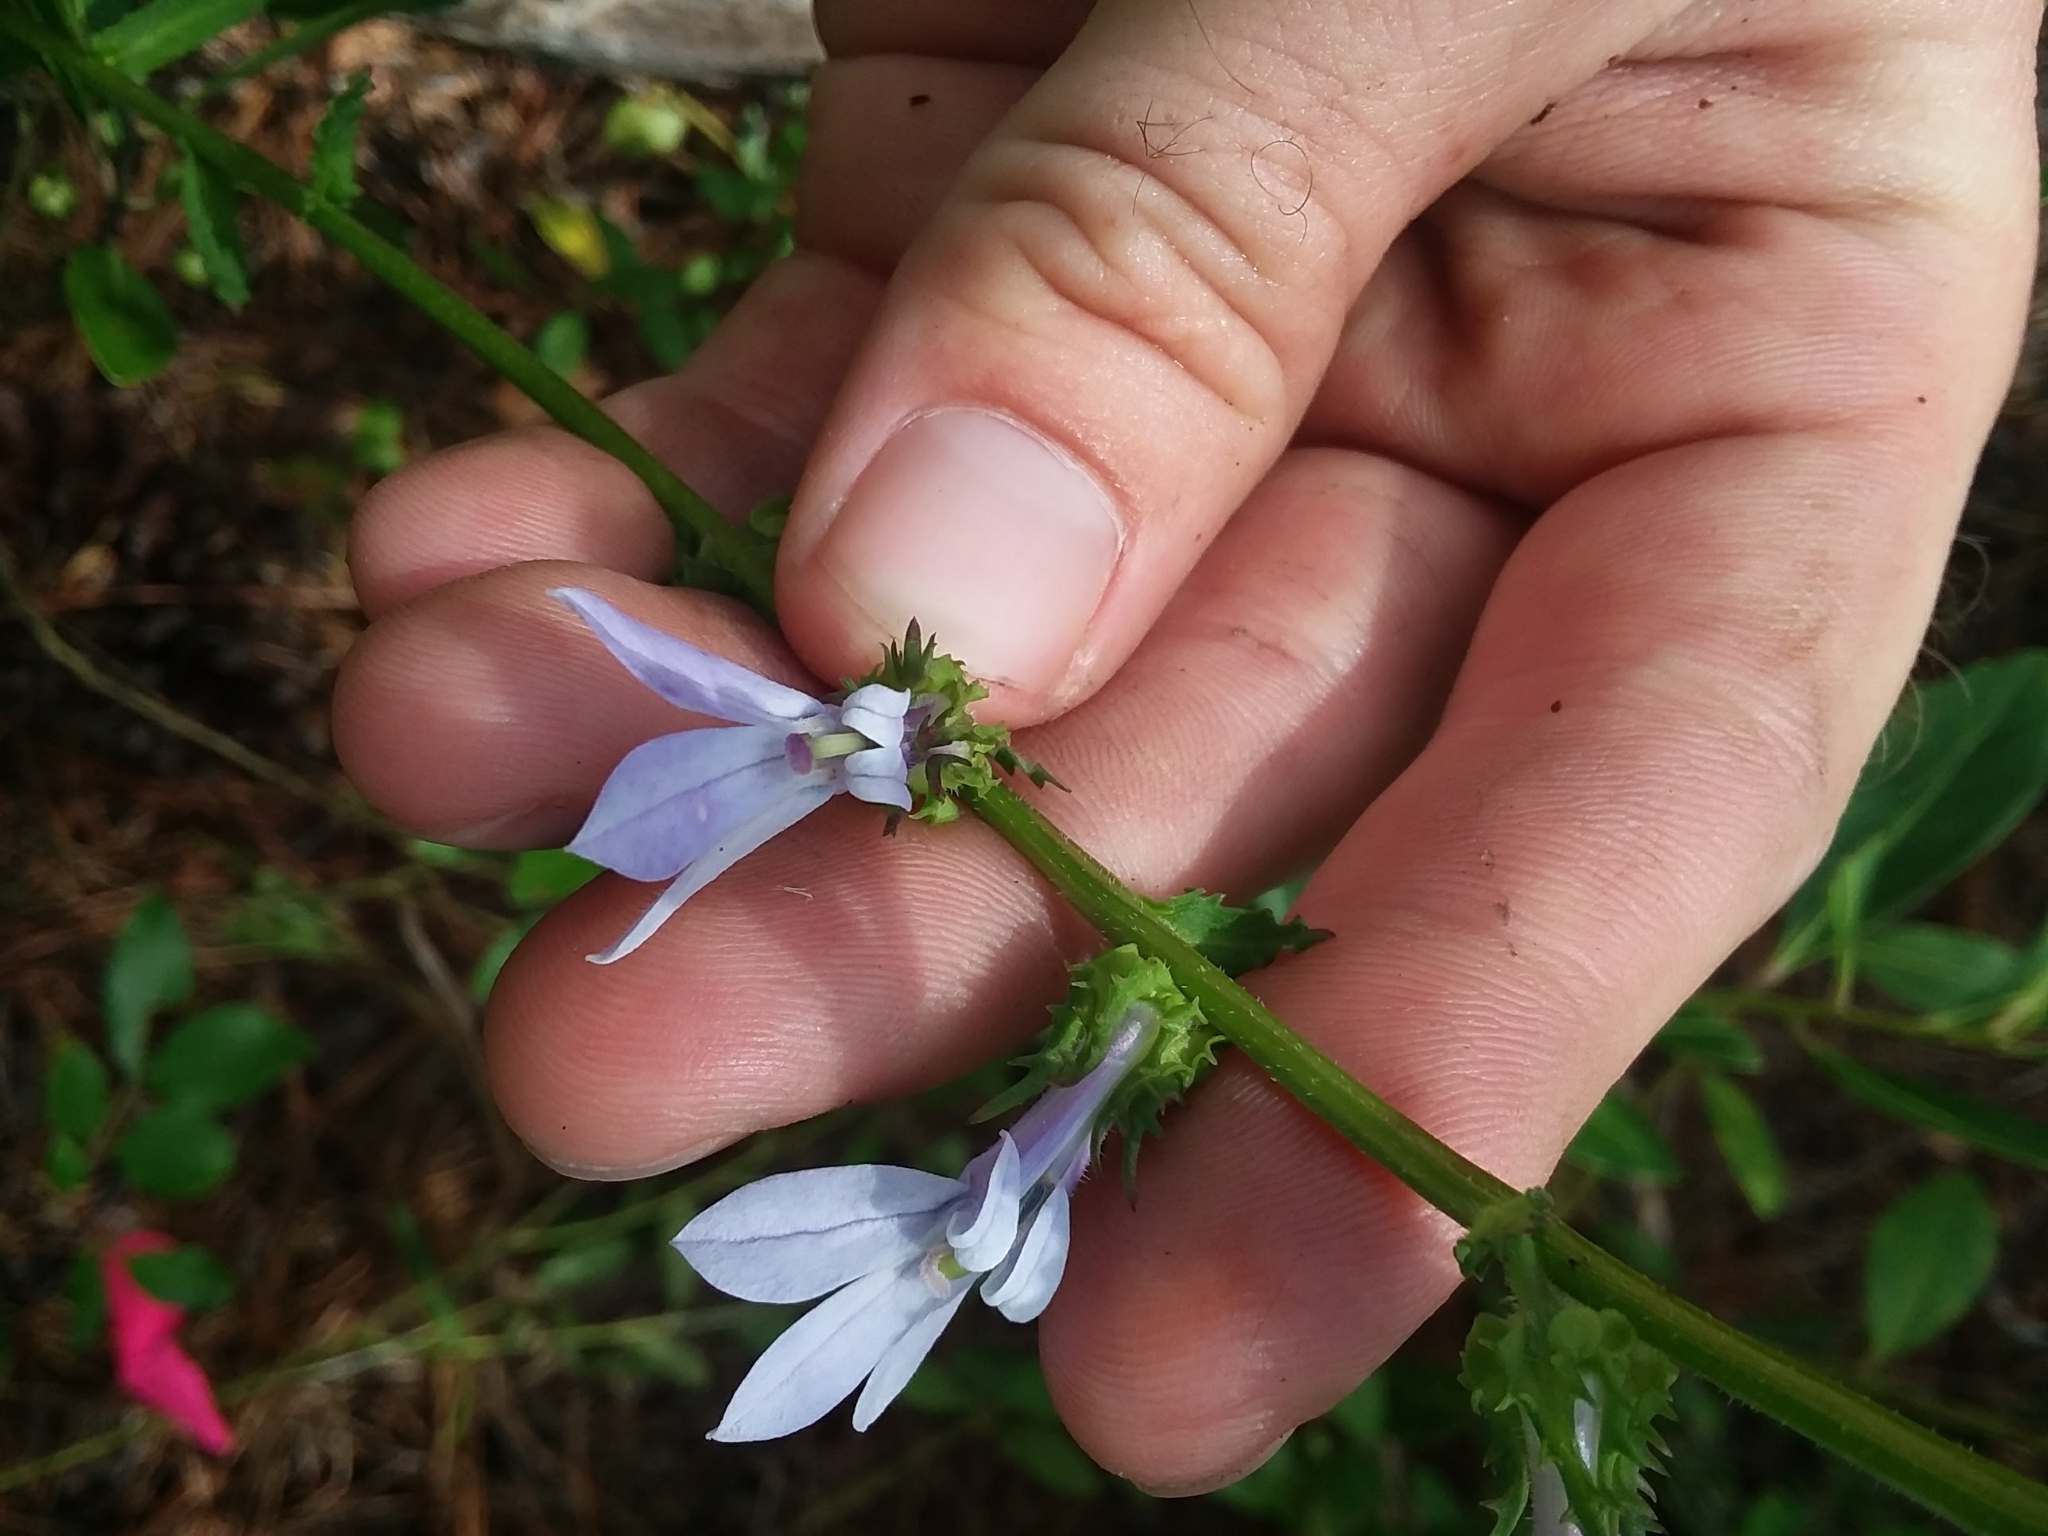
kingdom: Plantae
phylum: Tracheophyta
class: Magnoliopsida
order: Asterales
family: Campanulaceae
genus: Lobelia
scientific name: Lobelia brevifolia
